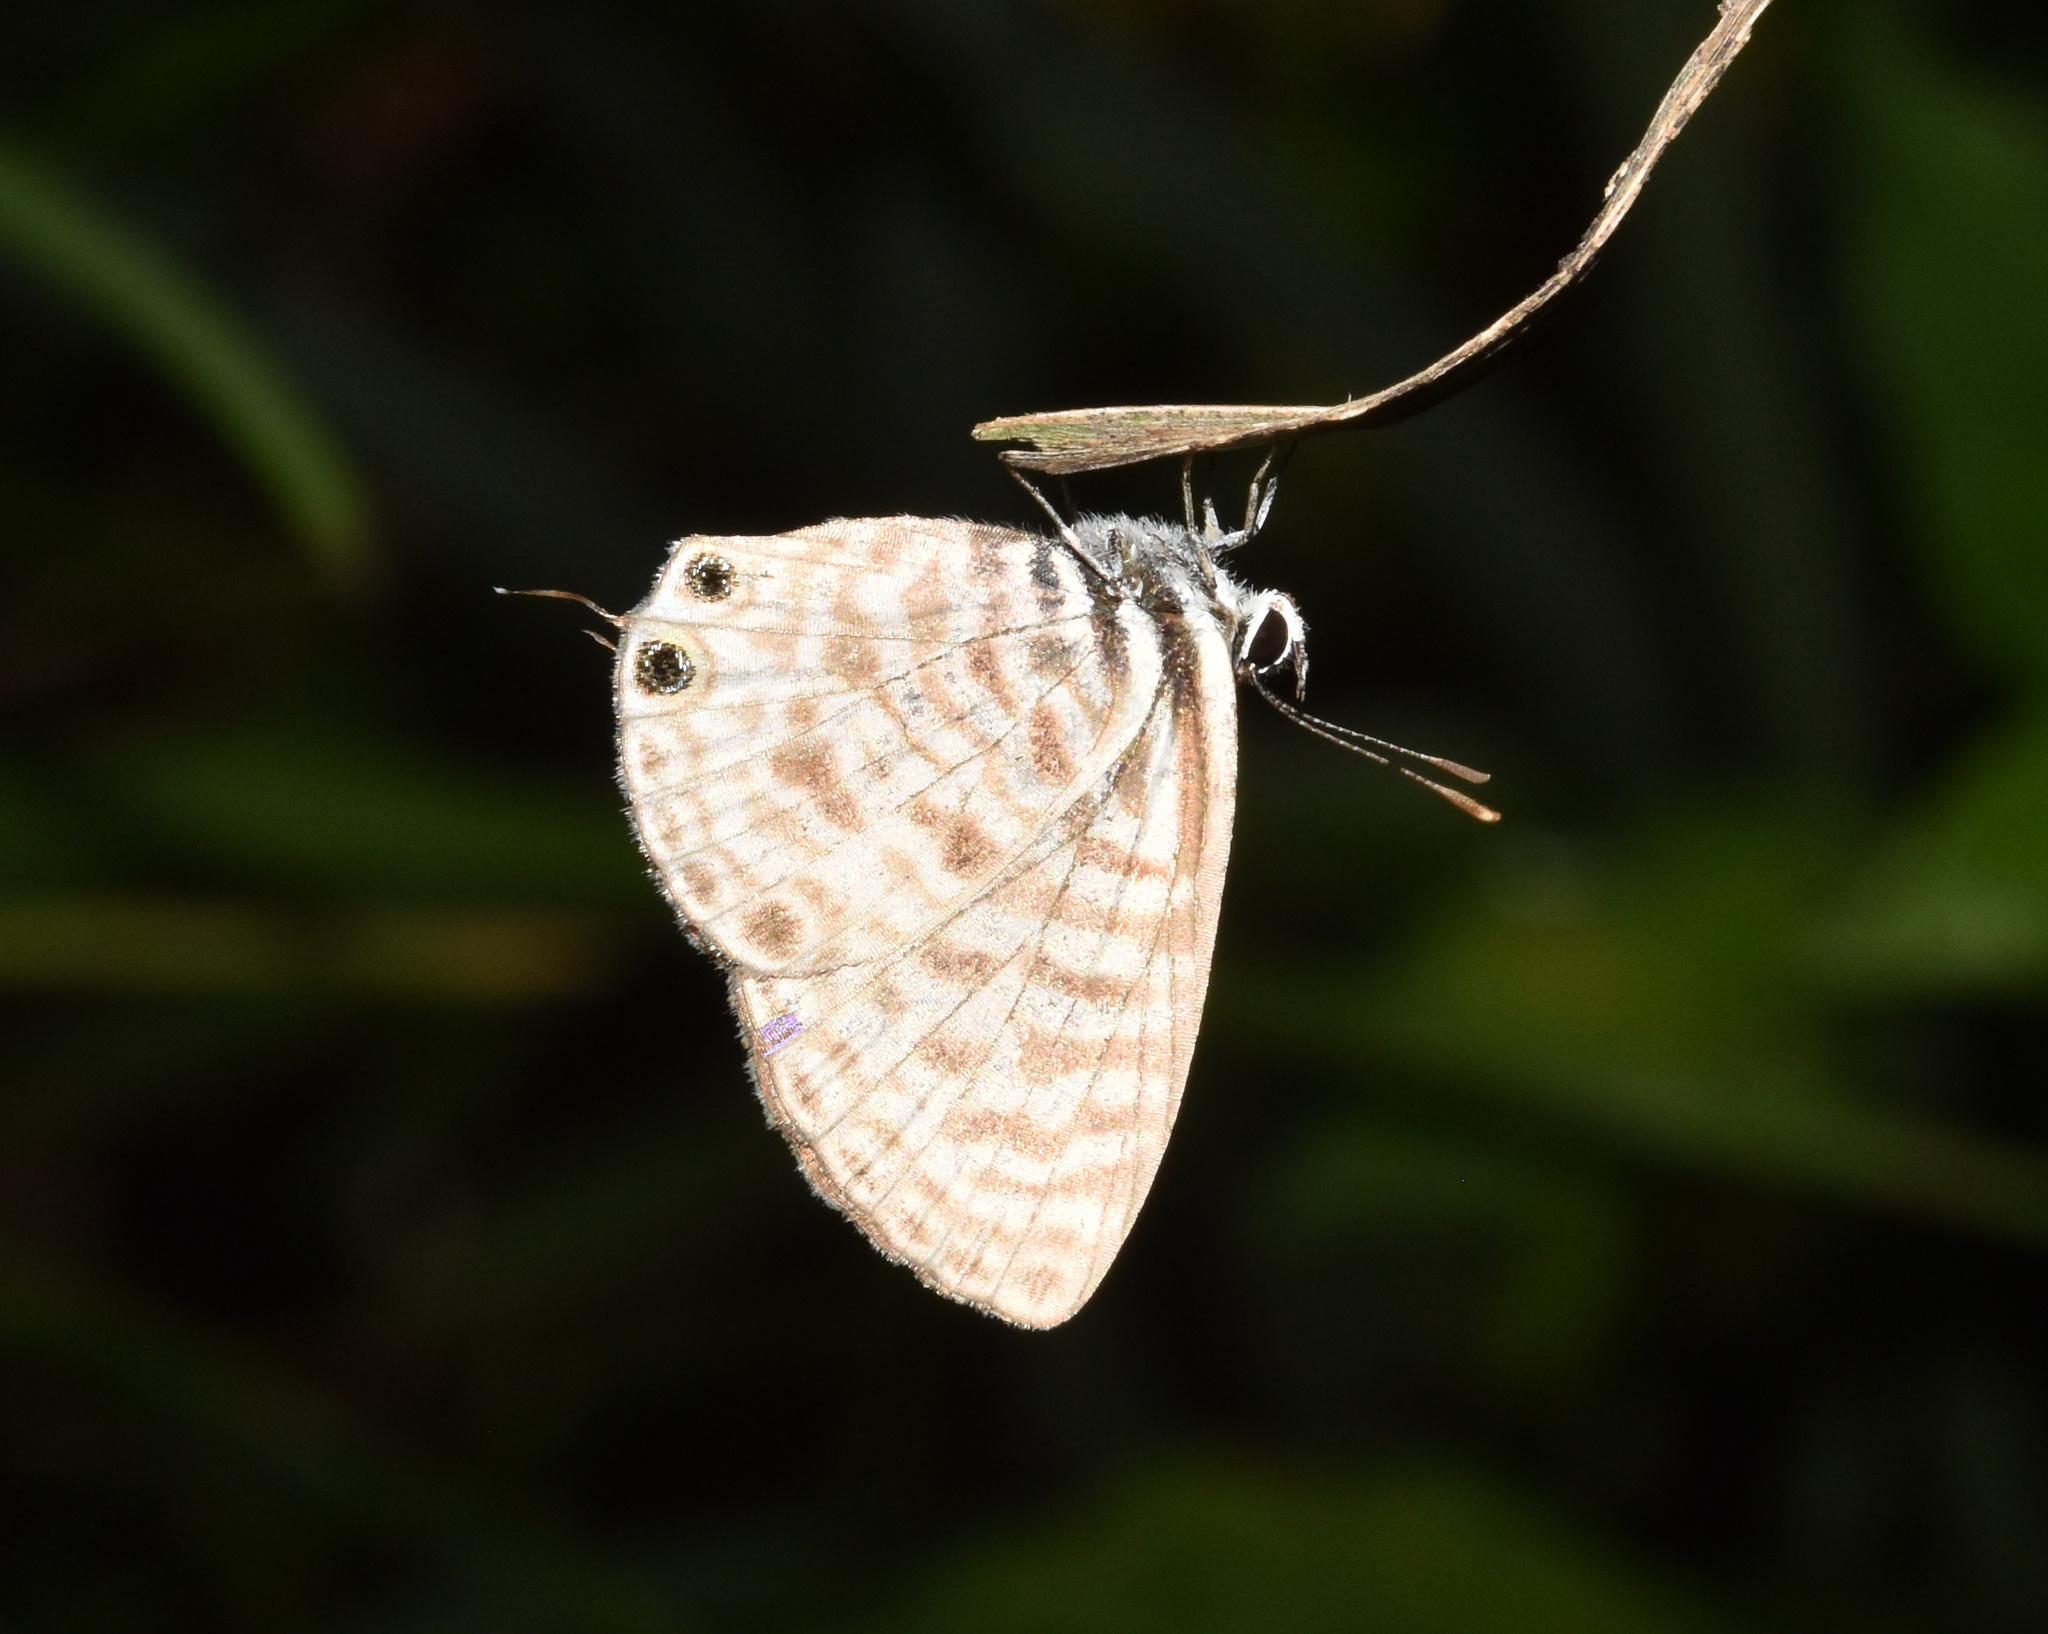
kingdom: Animalia
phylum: Arthropoda
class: Insecta
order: Lepidoptera
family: Lycaenidae
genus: Leptotes
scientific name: Leptotes
